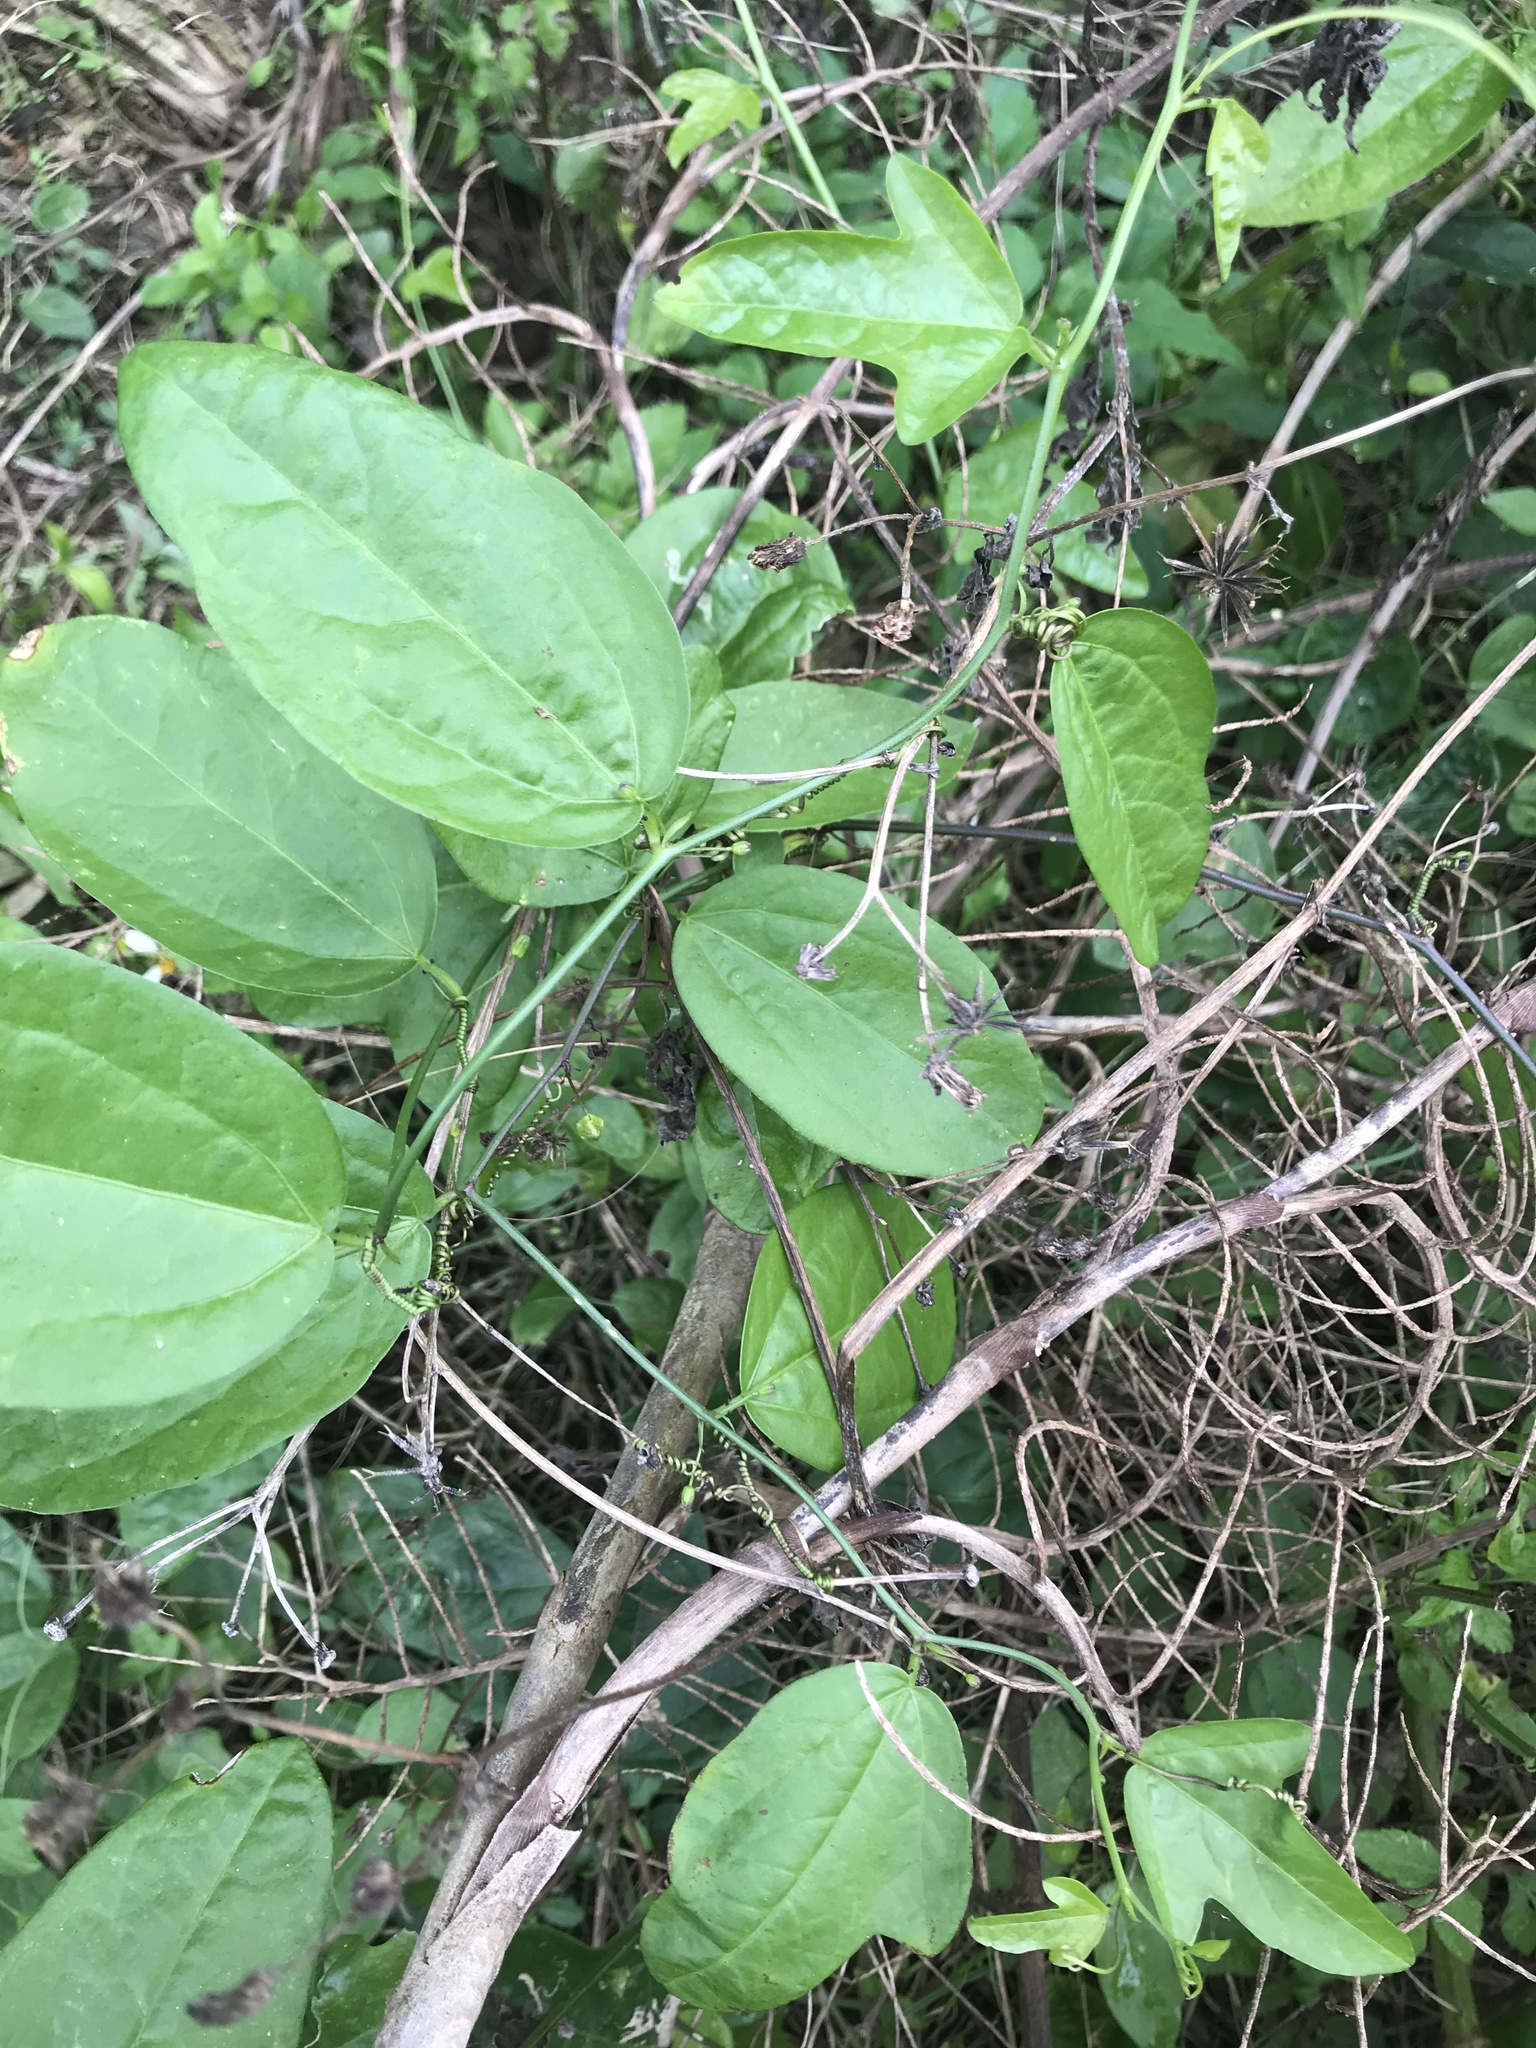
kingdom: Plantae
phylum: Tracheophyta
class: Magnoliopsida
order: Malpighiales
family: Passifloraceae
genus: Passiflora
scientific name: Passiflora pallida
